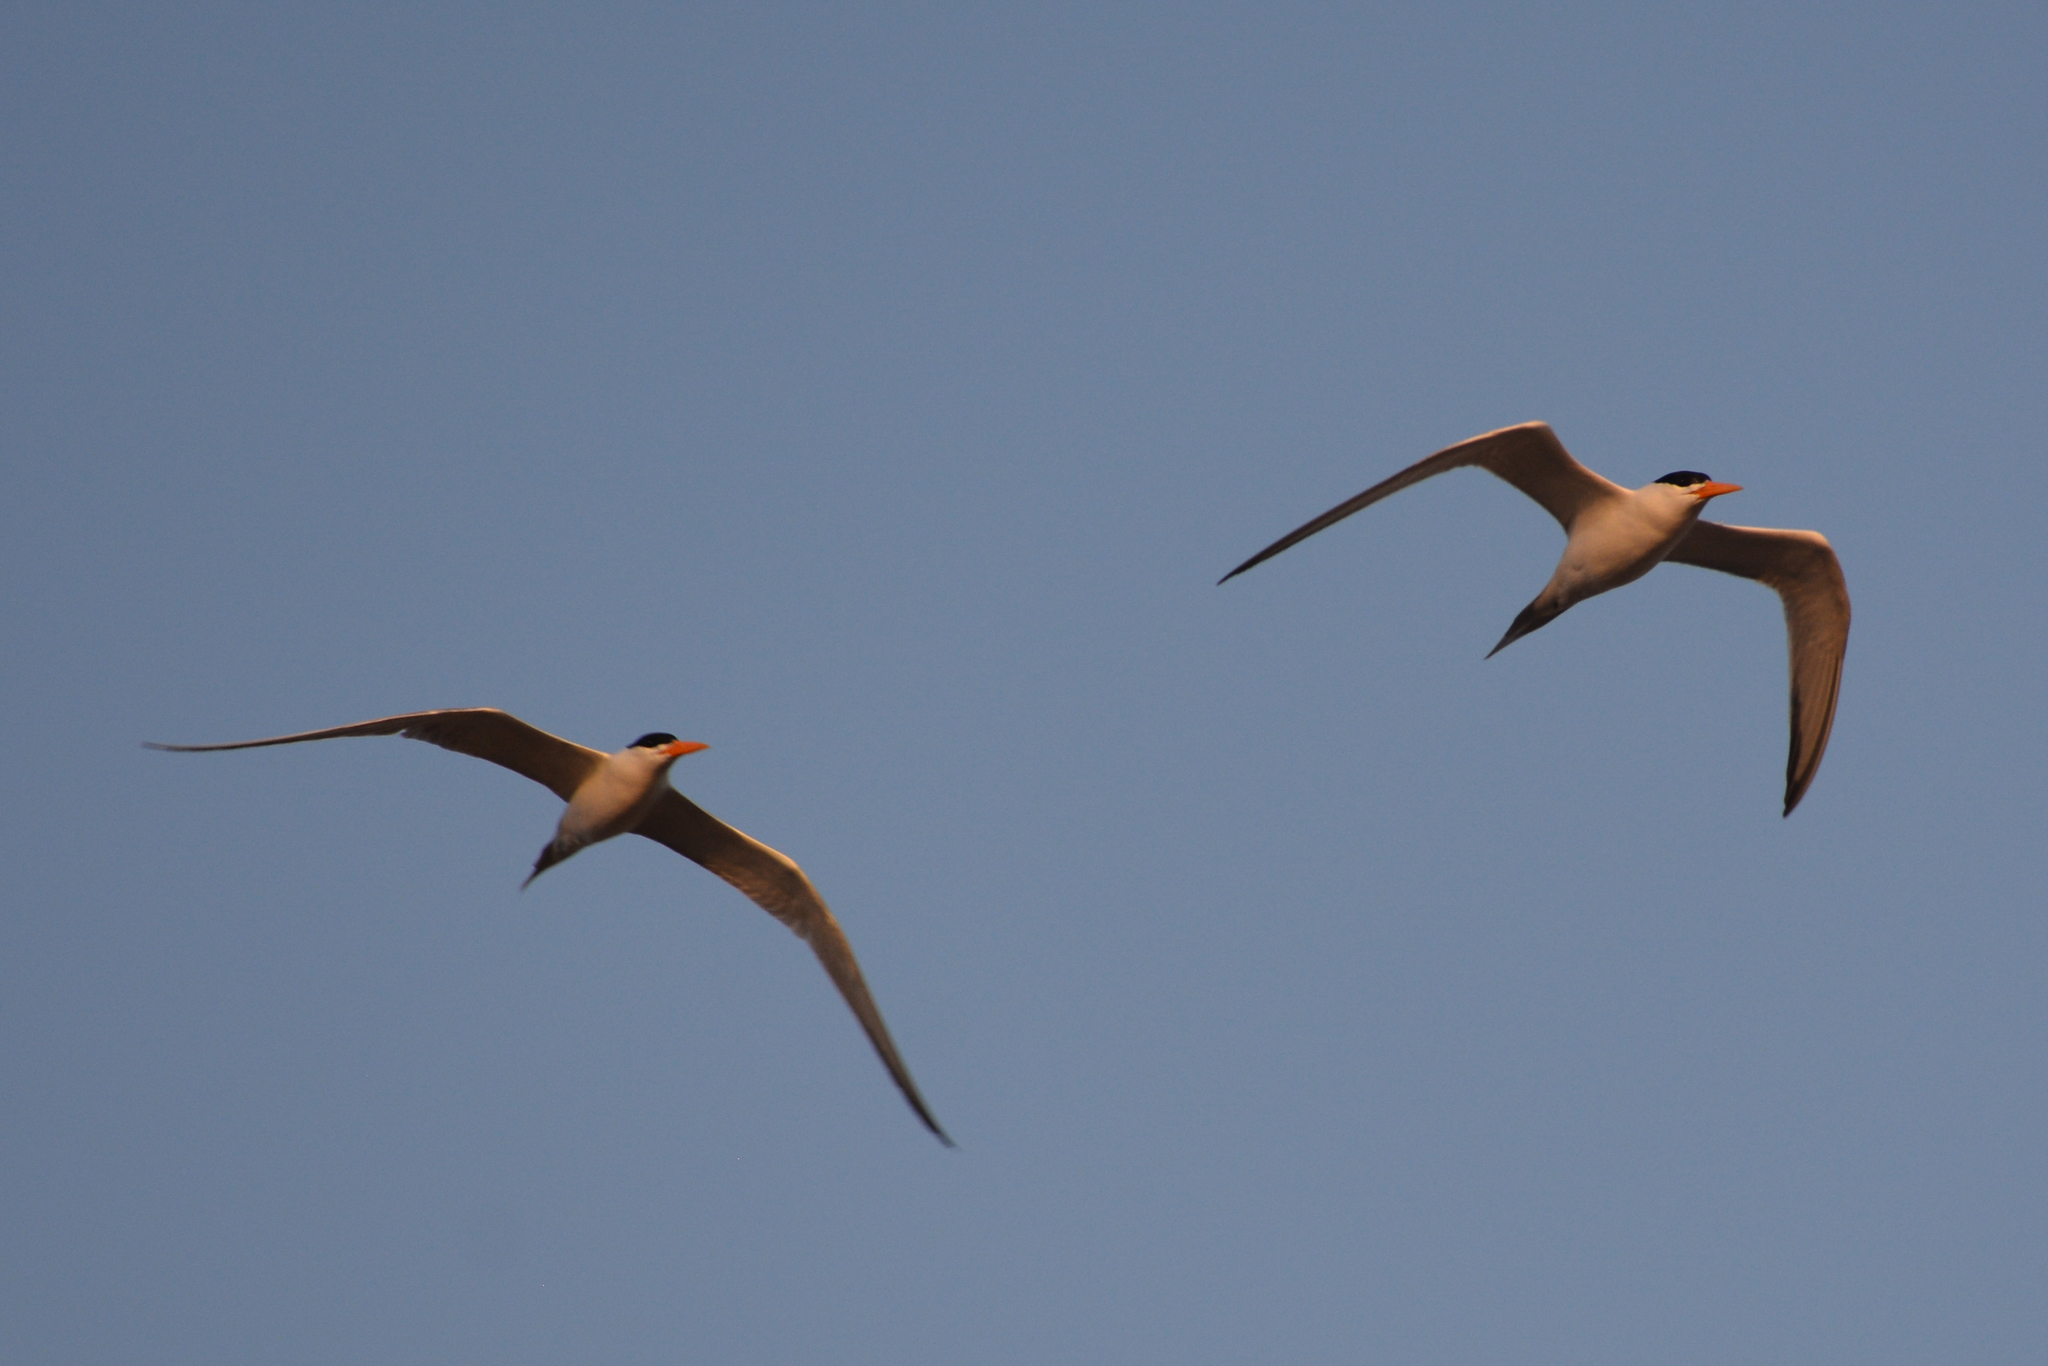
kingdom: Animalia
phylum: Chordata
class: Aves
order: Charadriiformes
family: Laridae
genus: Hydroprogne
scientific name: Hydroprogne caspia
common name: Caspian tern
